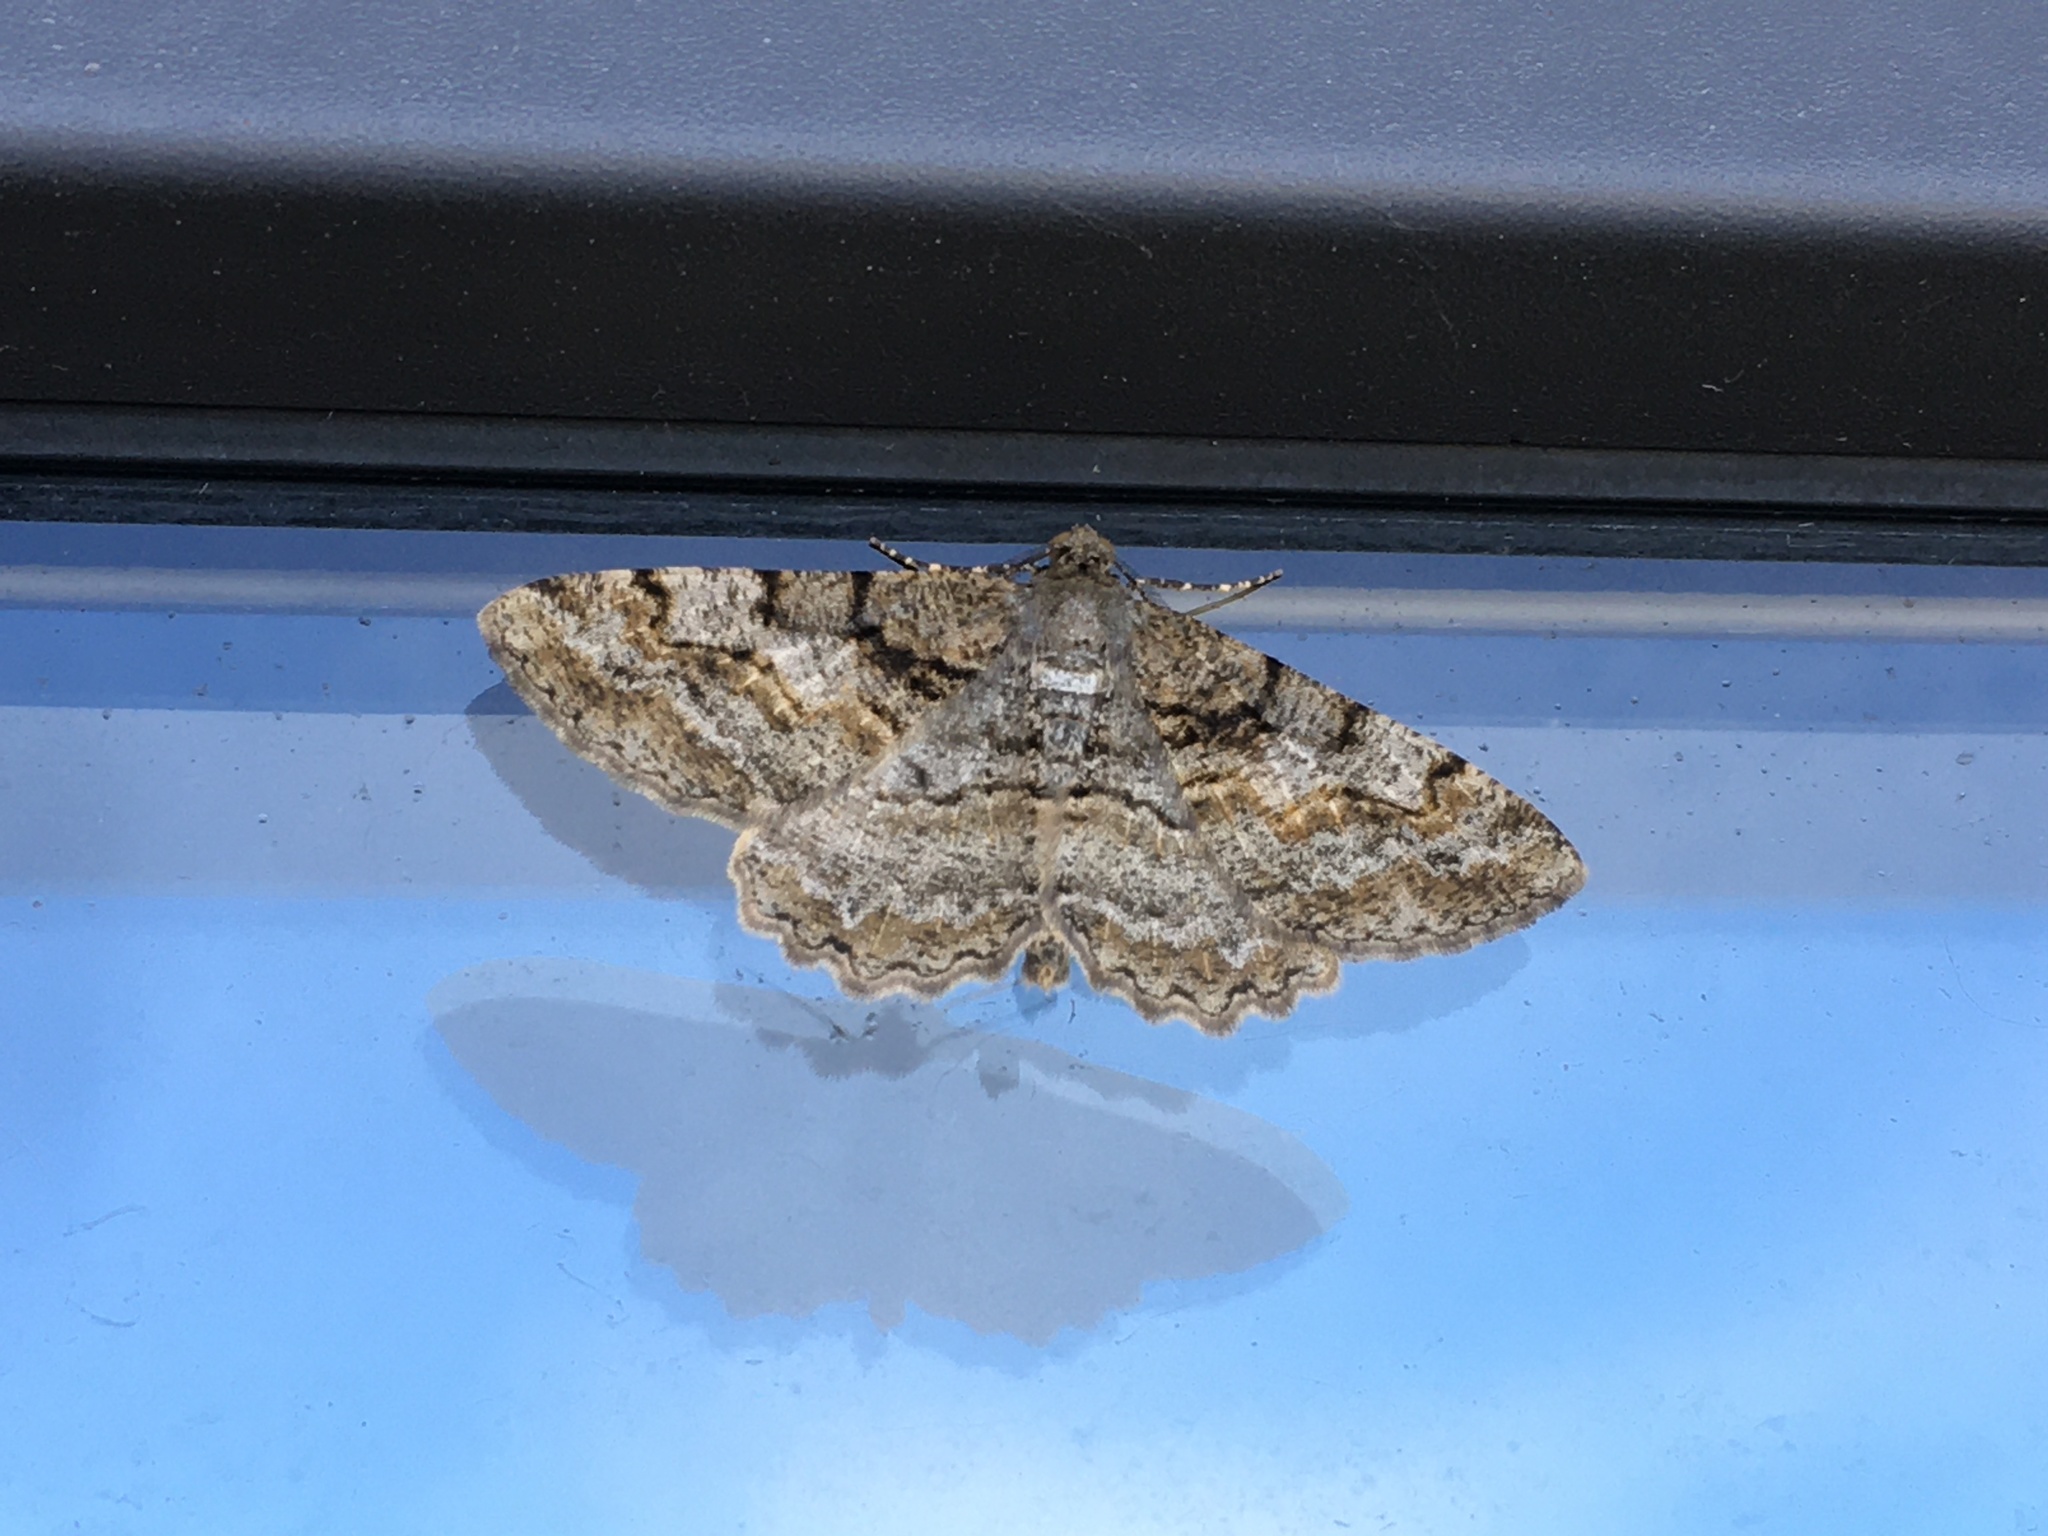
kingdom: Animalia
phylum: Arthropoda
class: Insecta
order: Lepidoptera
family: Geometridae
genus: Alcis
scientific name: Alcis repandata
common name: Mottled beauty
